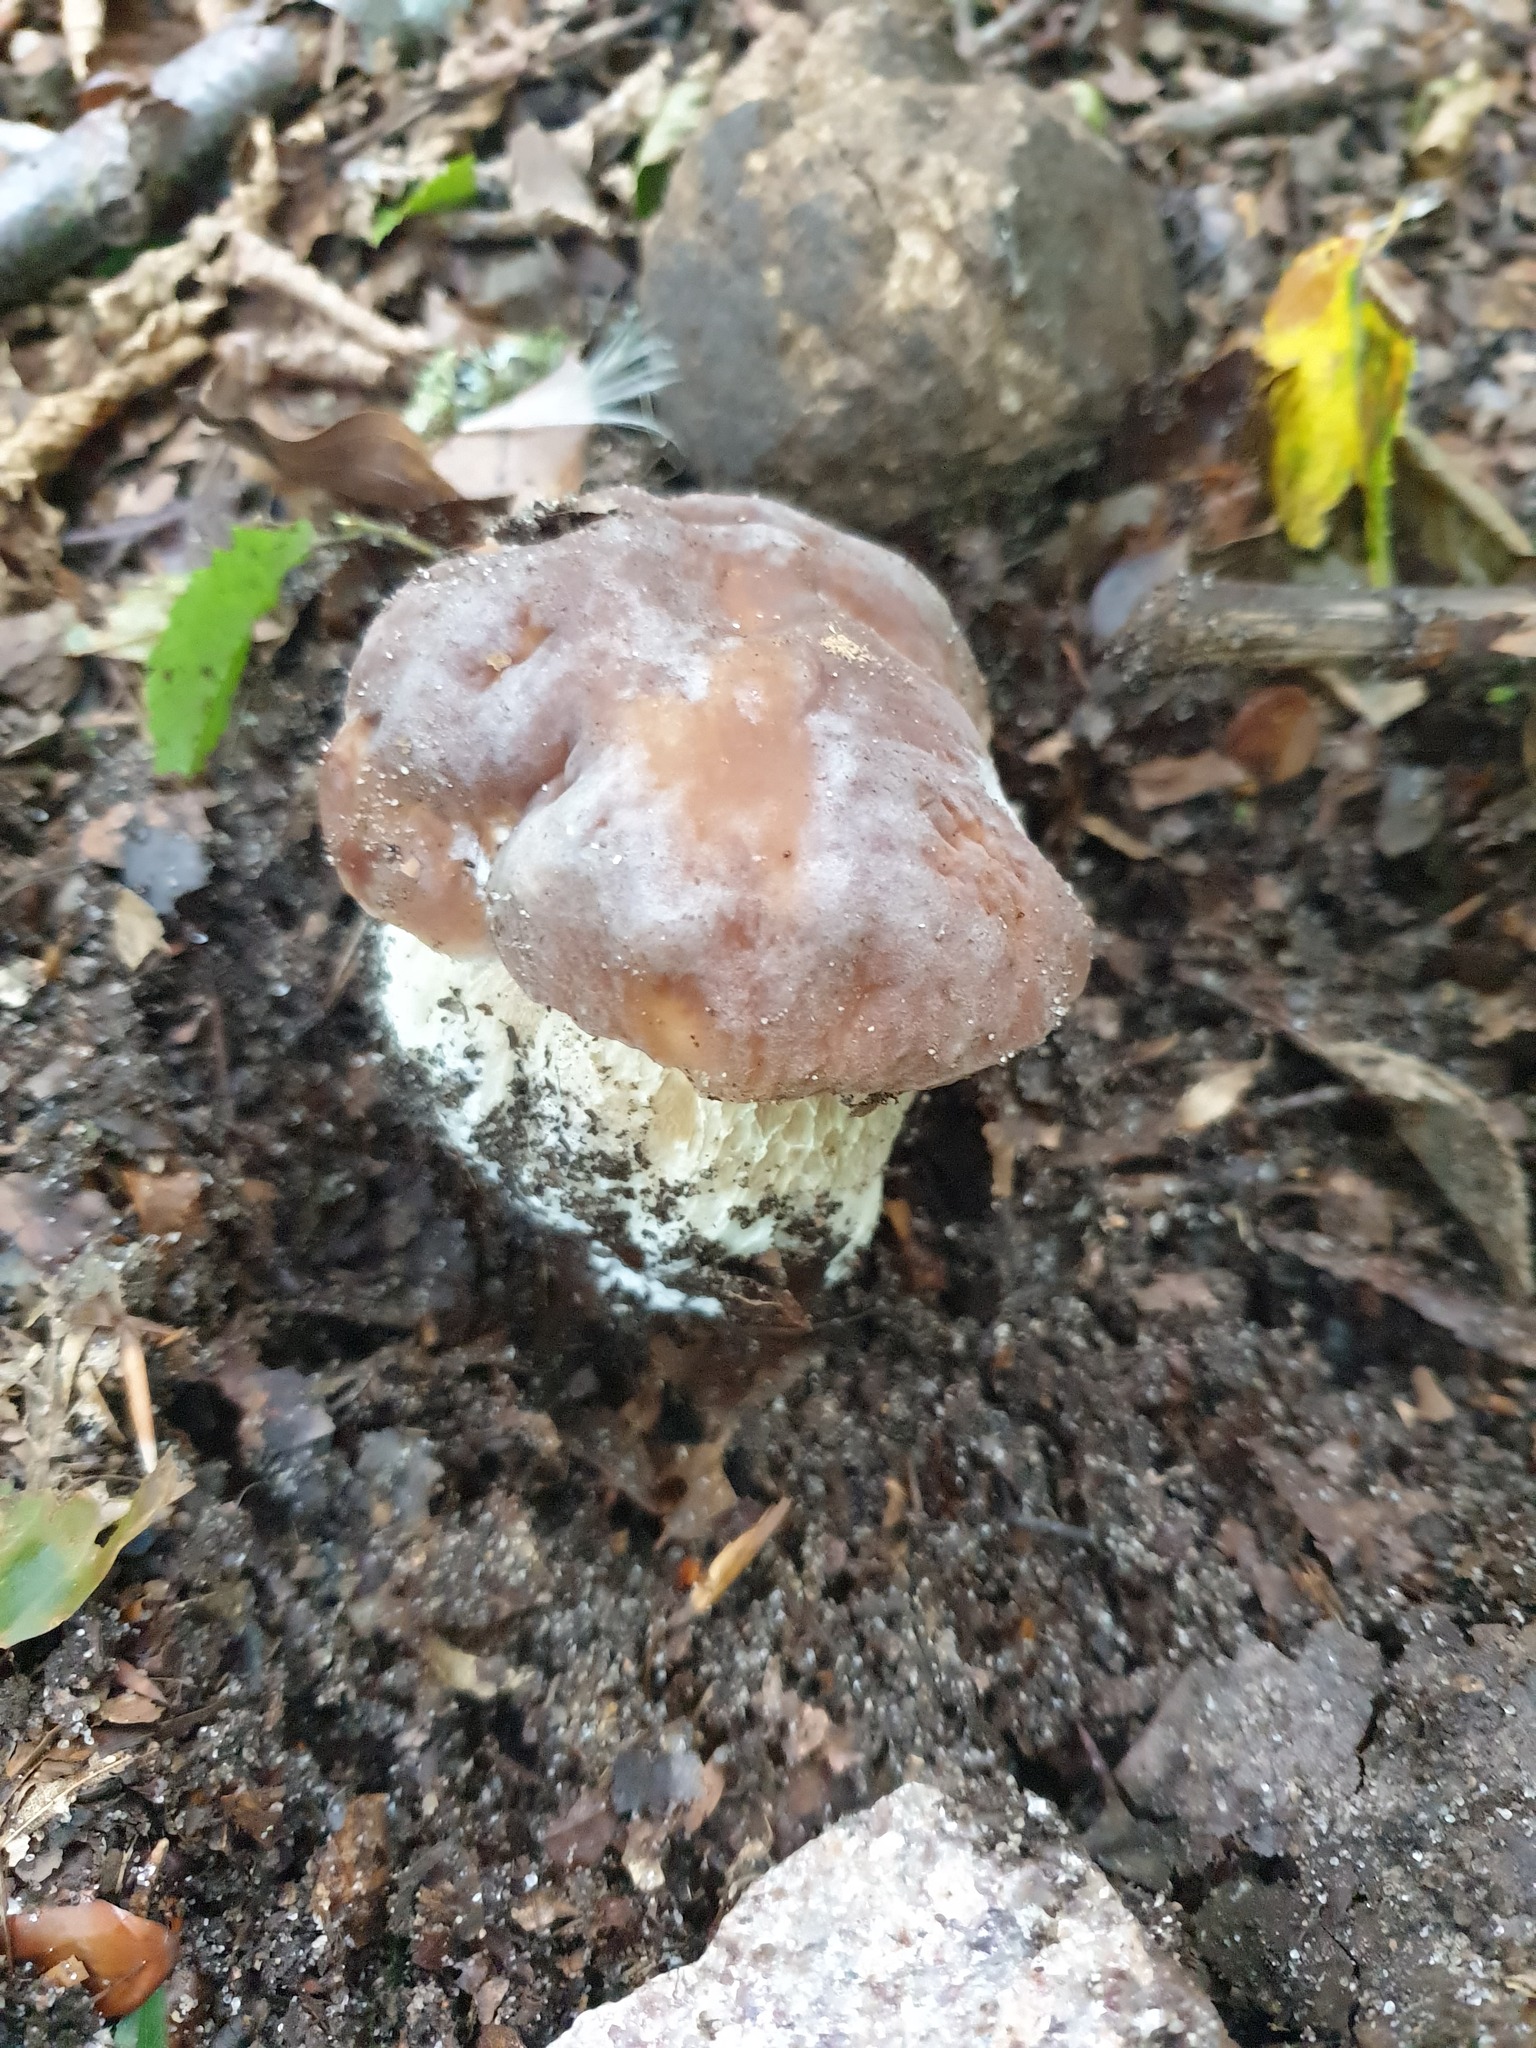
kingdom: Fungi
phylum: Basidiomycota
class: Agaricomycetes
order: Boletales
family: Boletaceae
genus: Boletus
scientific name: Boletus reticulatus
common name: Summer bolete
